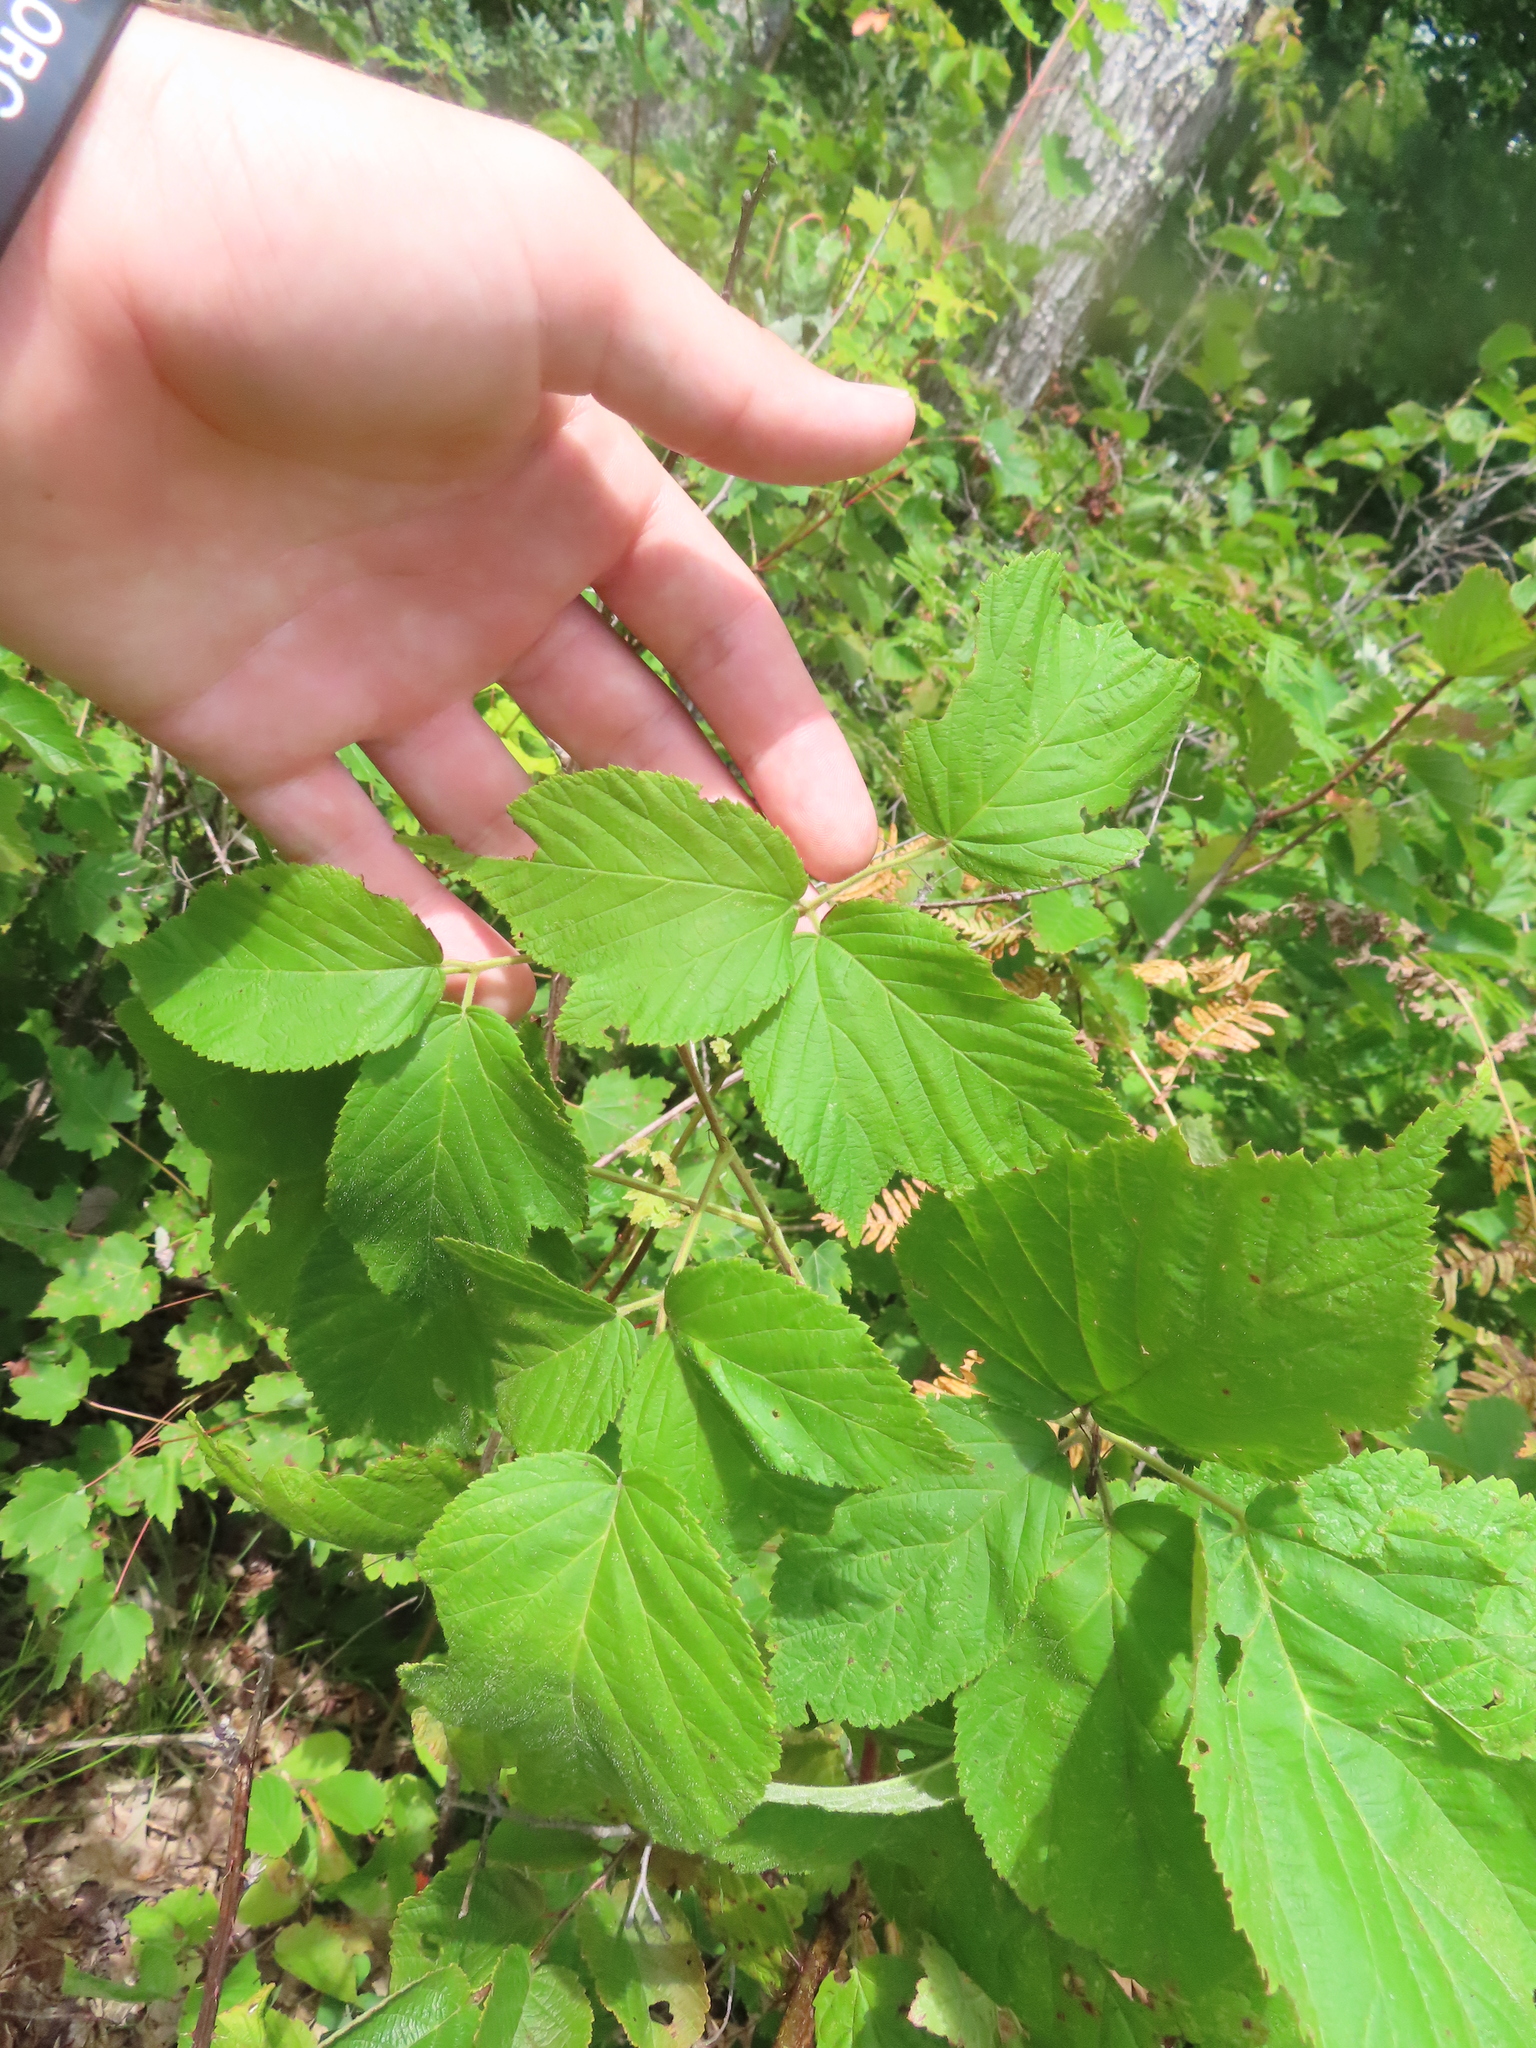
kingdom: Plantae
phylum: Tracheophyta
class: Magnoliopsida
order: Rosales
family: Rosaceae
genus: Rubus
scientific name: Rubus allegheniensis
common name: Allegheny blackberry
